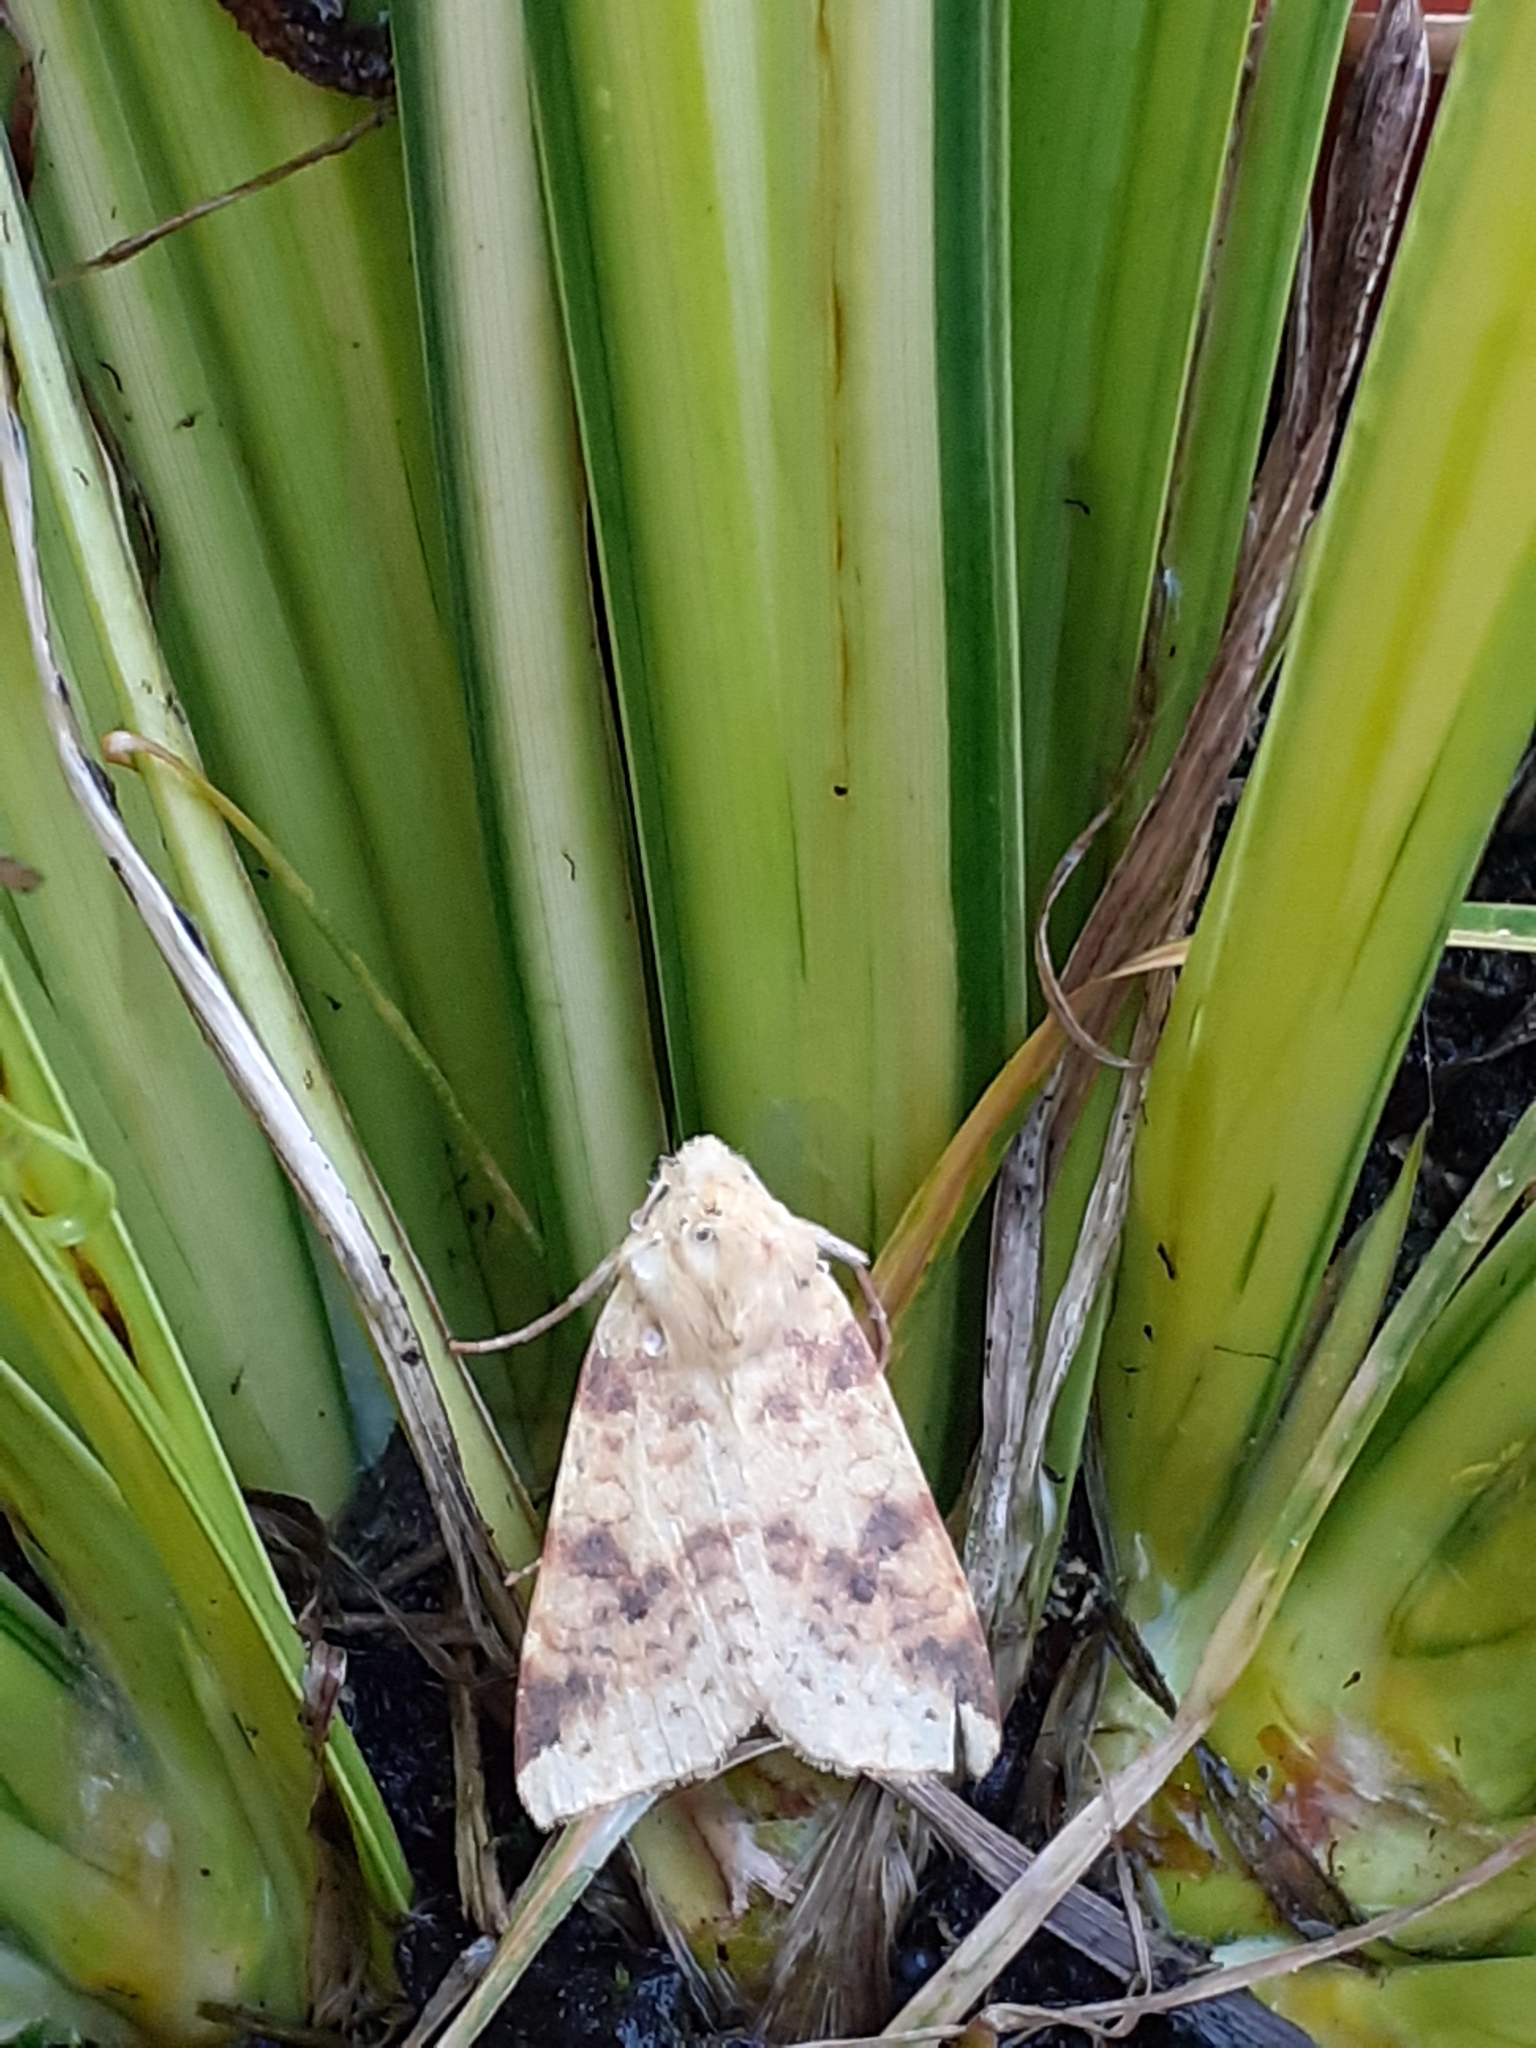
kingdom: Animalia
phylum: Arthropoda
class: Insecta
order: Lepidoptera
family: Noctuidae
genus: Xanthia
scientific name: Xanthia icteritia
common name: The sallow
